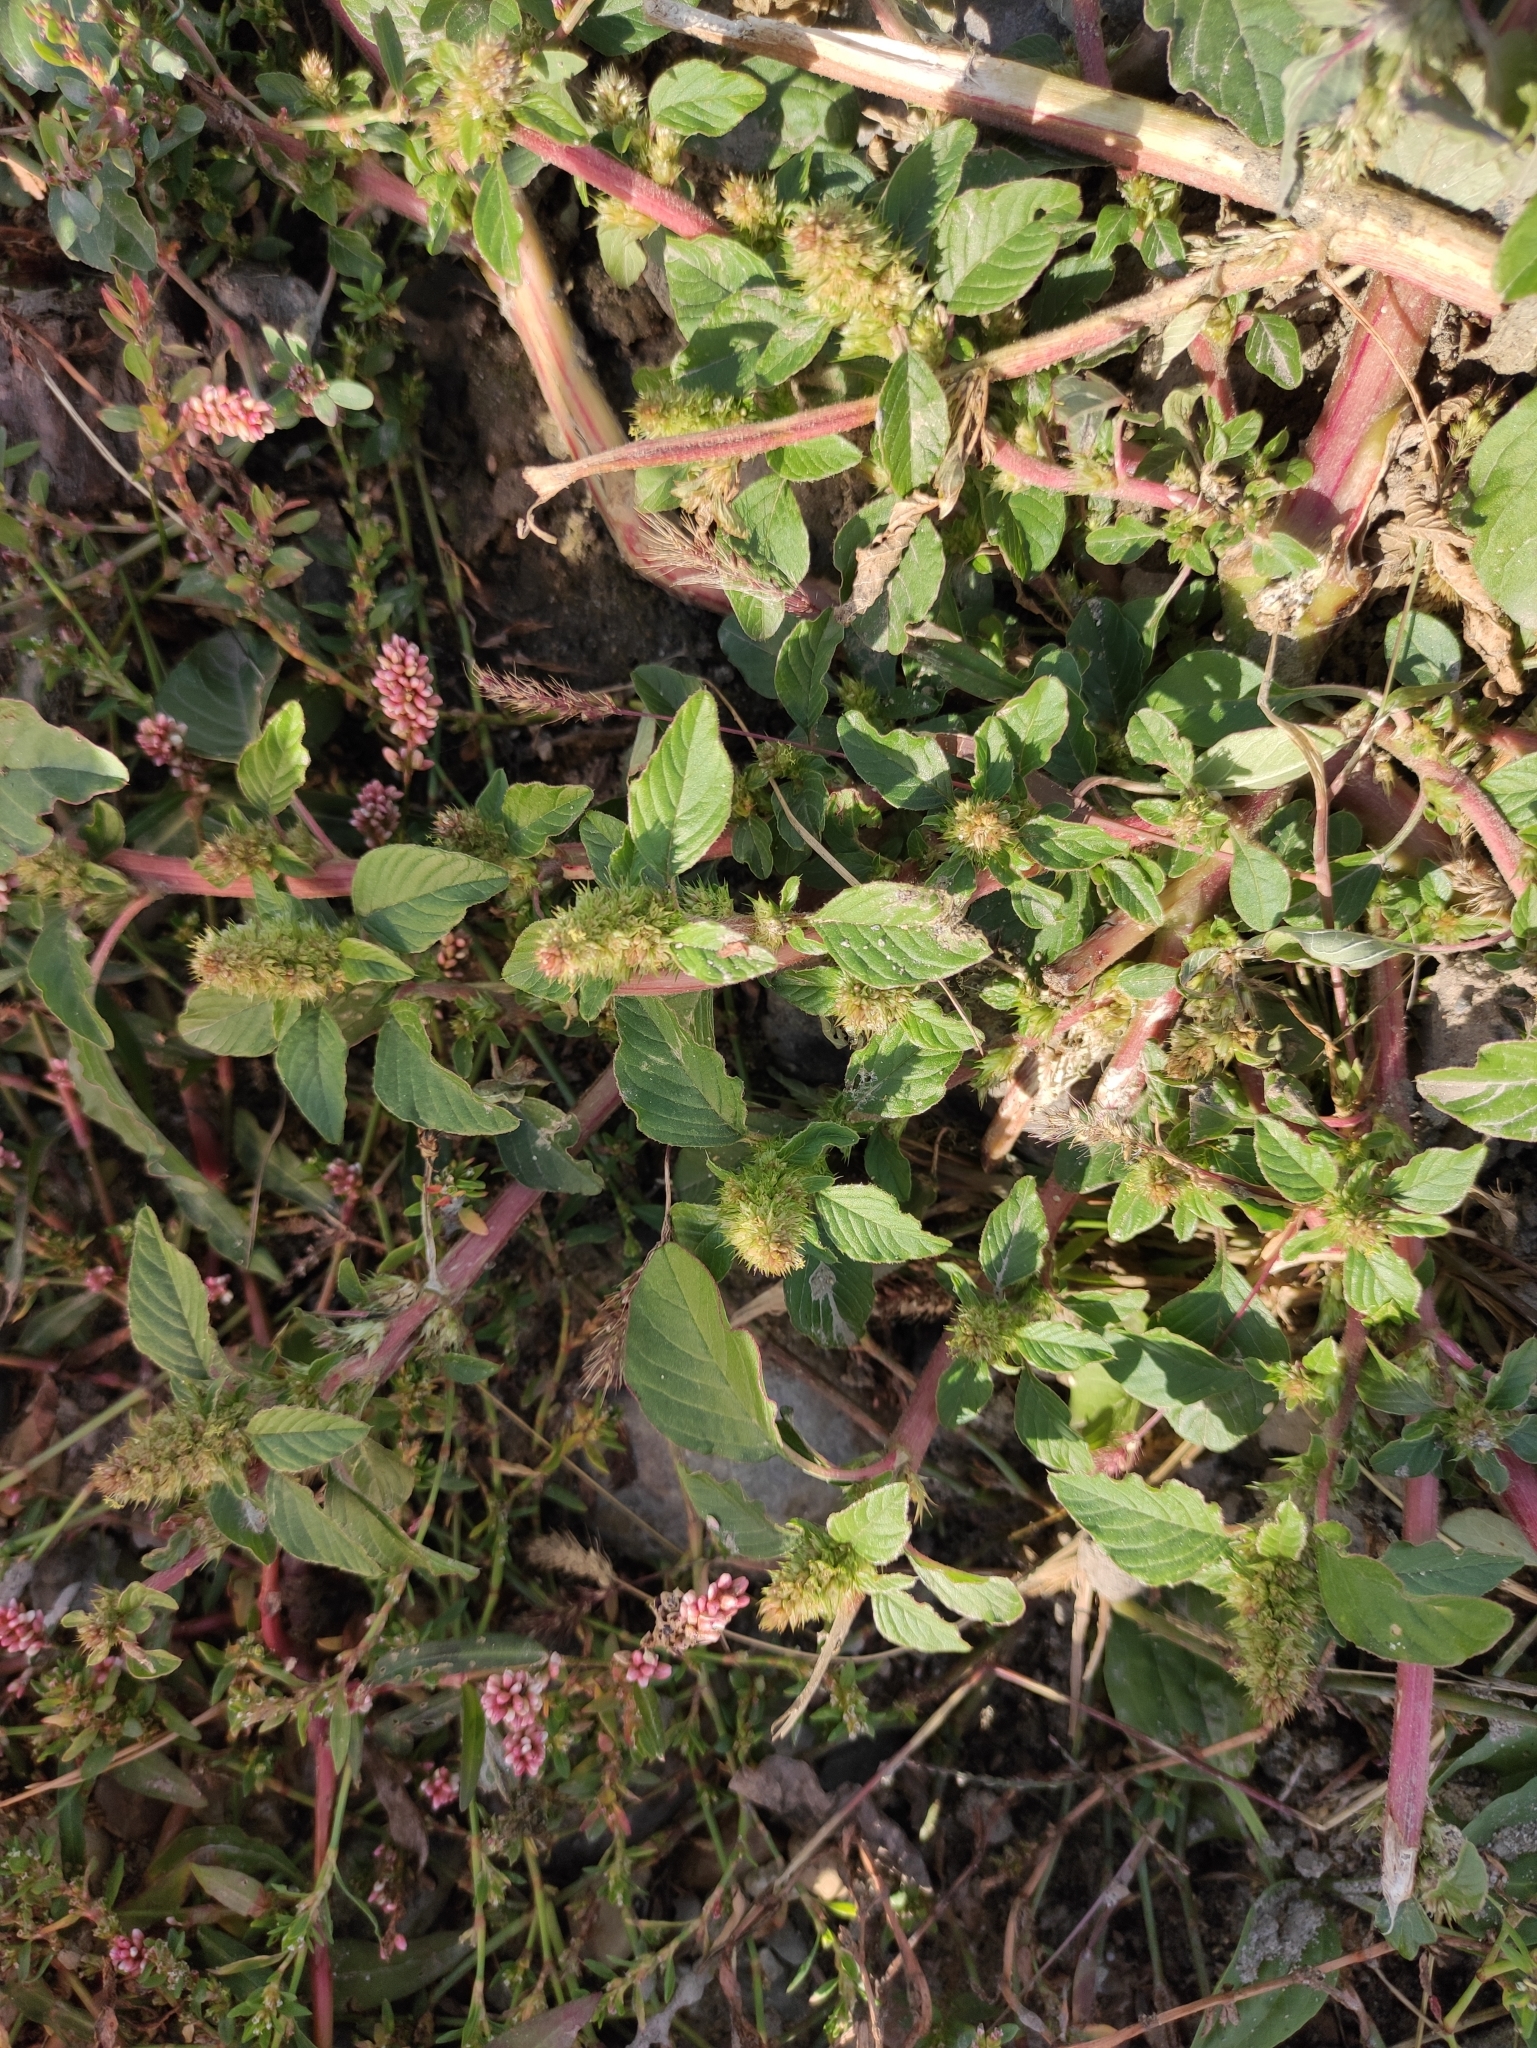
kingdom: Plantae
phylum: Tracheophyta
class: Magnoliopsida
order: Caryophyllales
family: Amaranthaceae
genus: Amaranthus
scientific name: Amaranthus retroflexus
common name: Redroot amaranth
